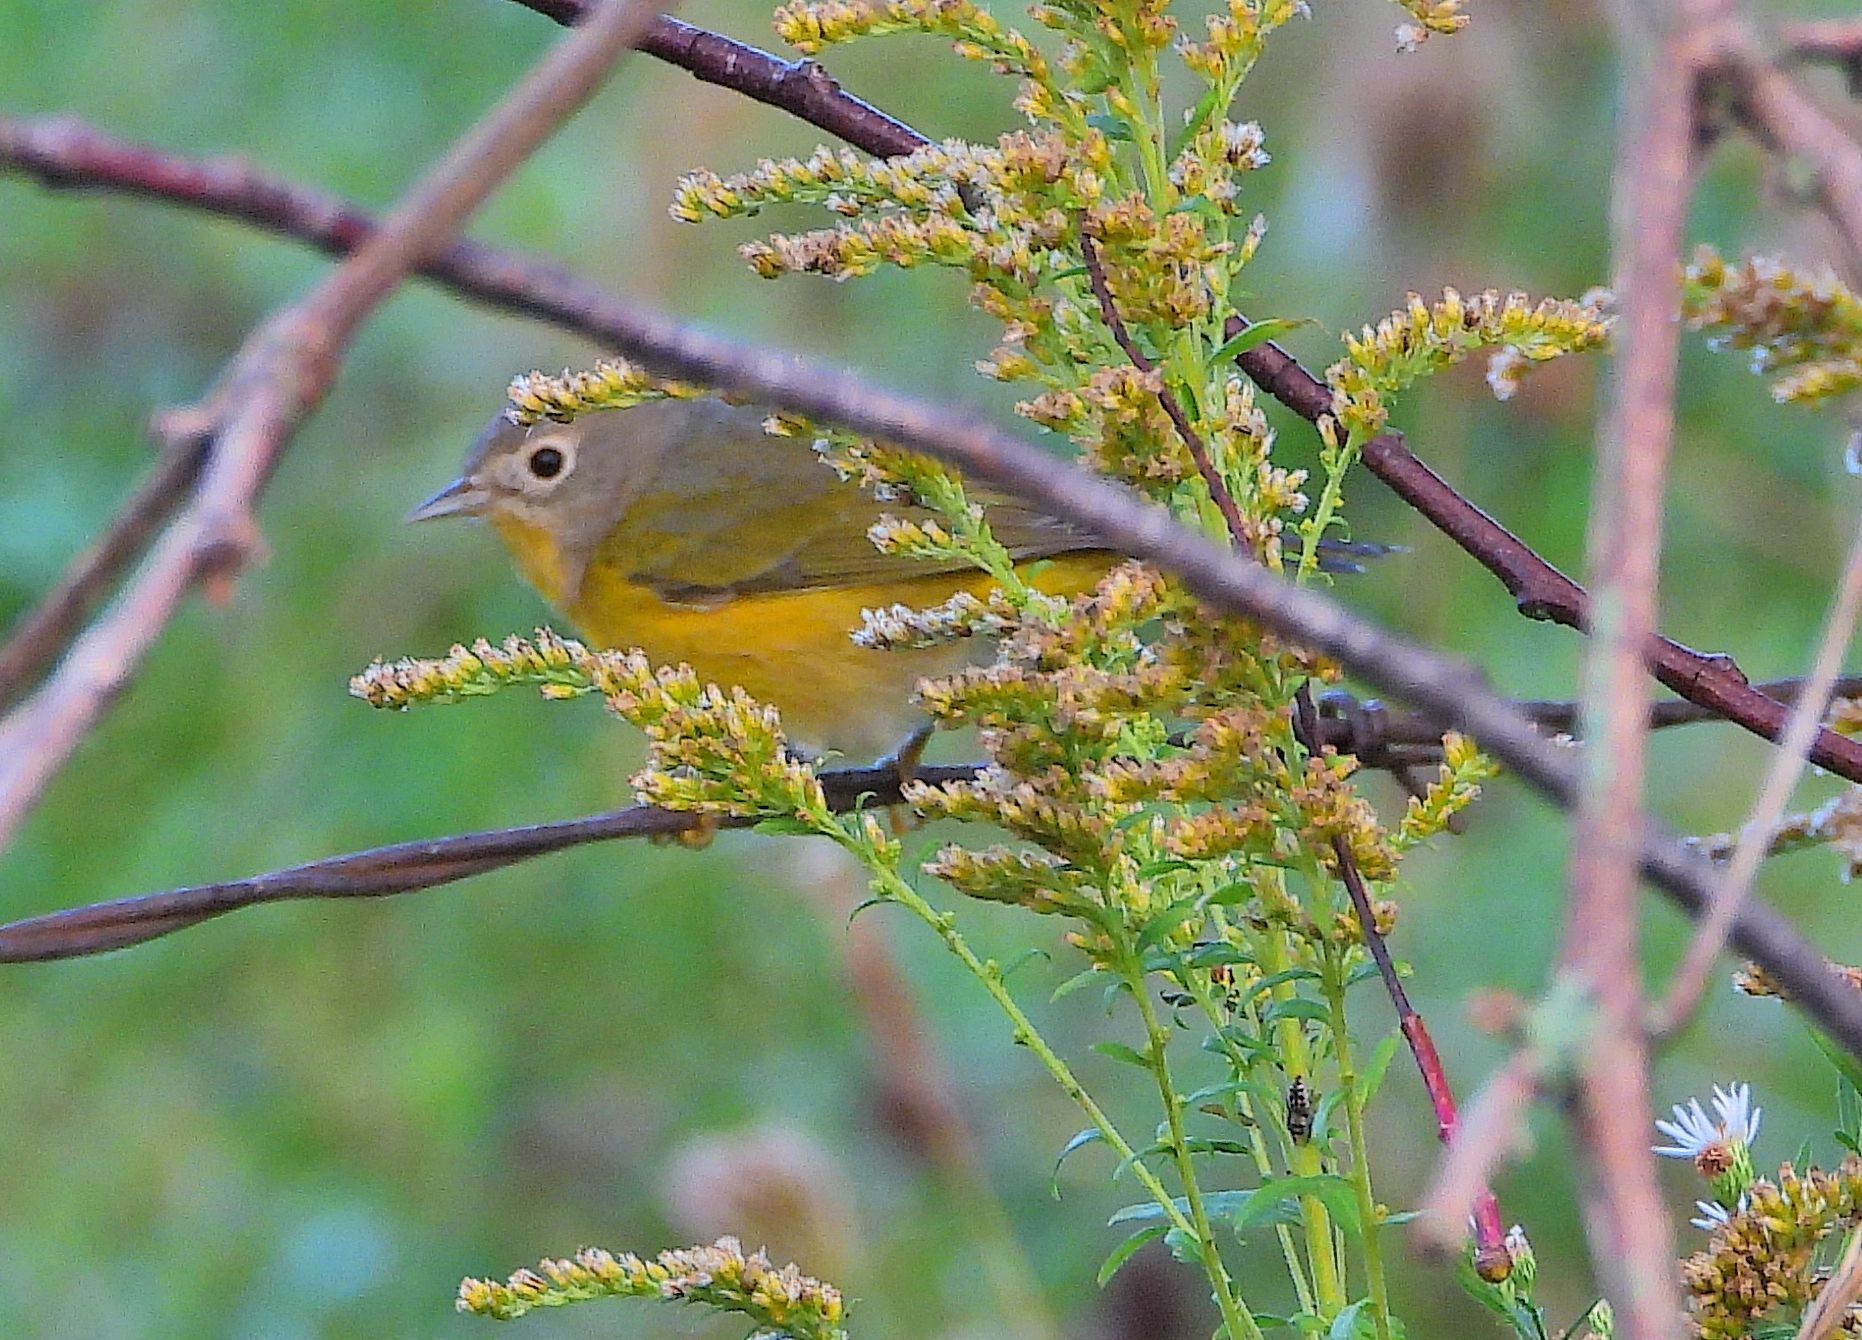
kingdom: Animalia
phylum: Chordata
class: Aves
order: Passeriformes
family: Parulidae
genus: Leiothlypis
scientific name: Leiothlypis ruficapilla
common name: Nashville warbler
